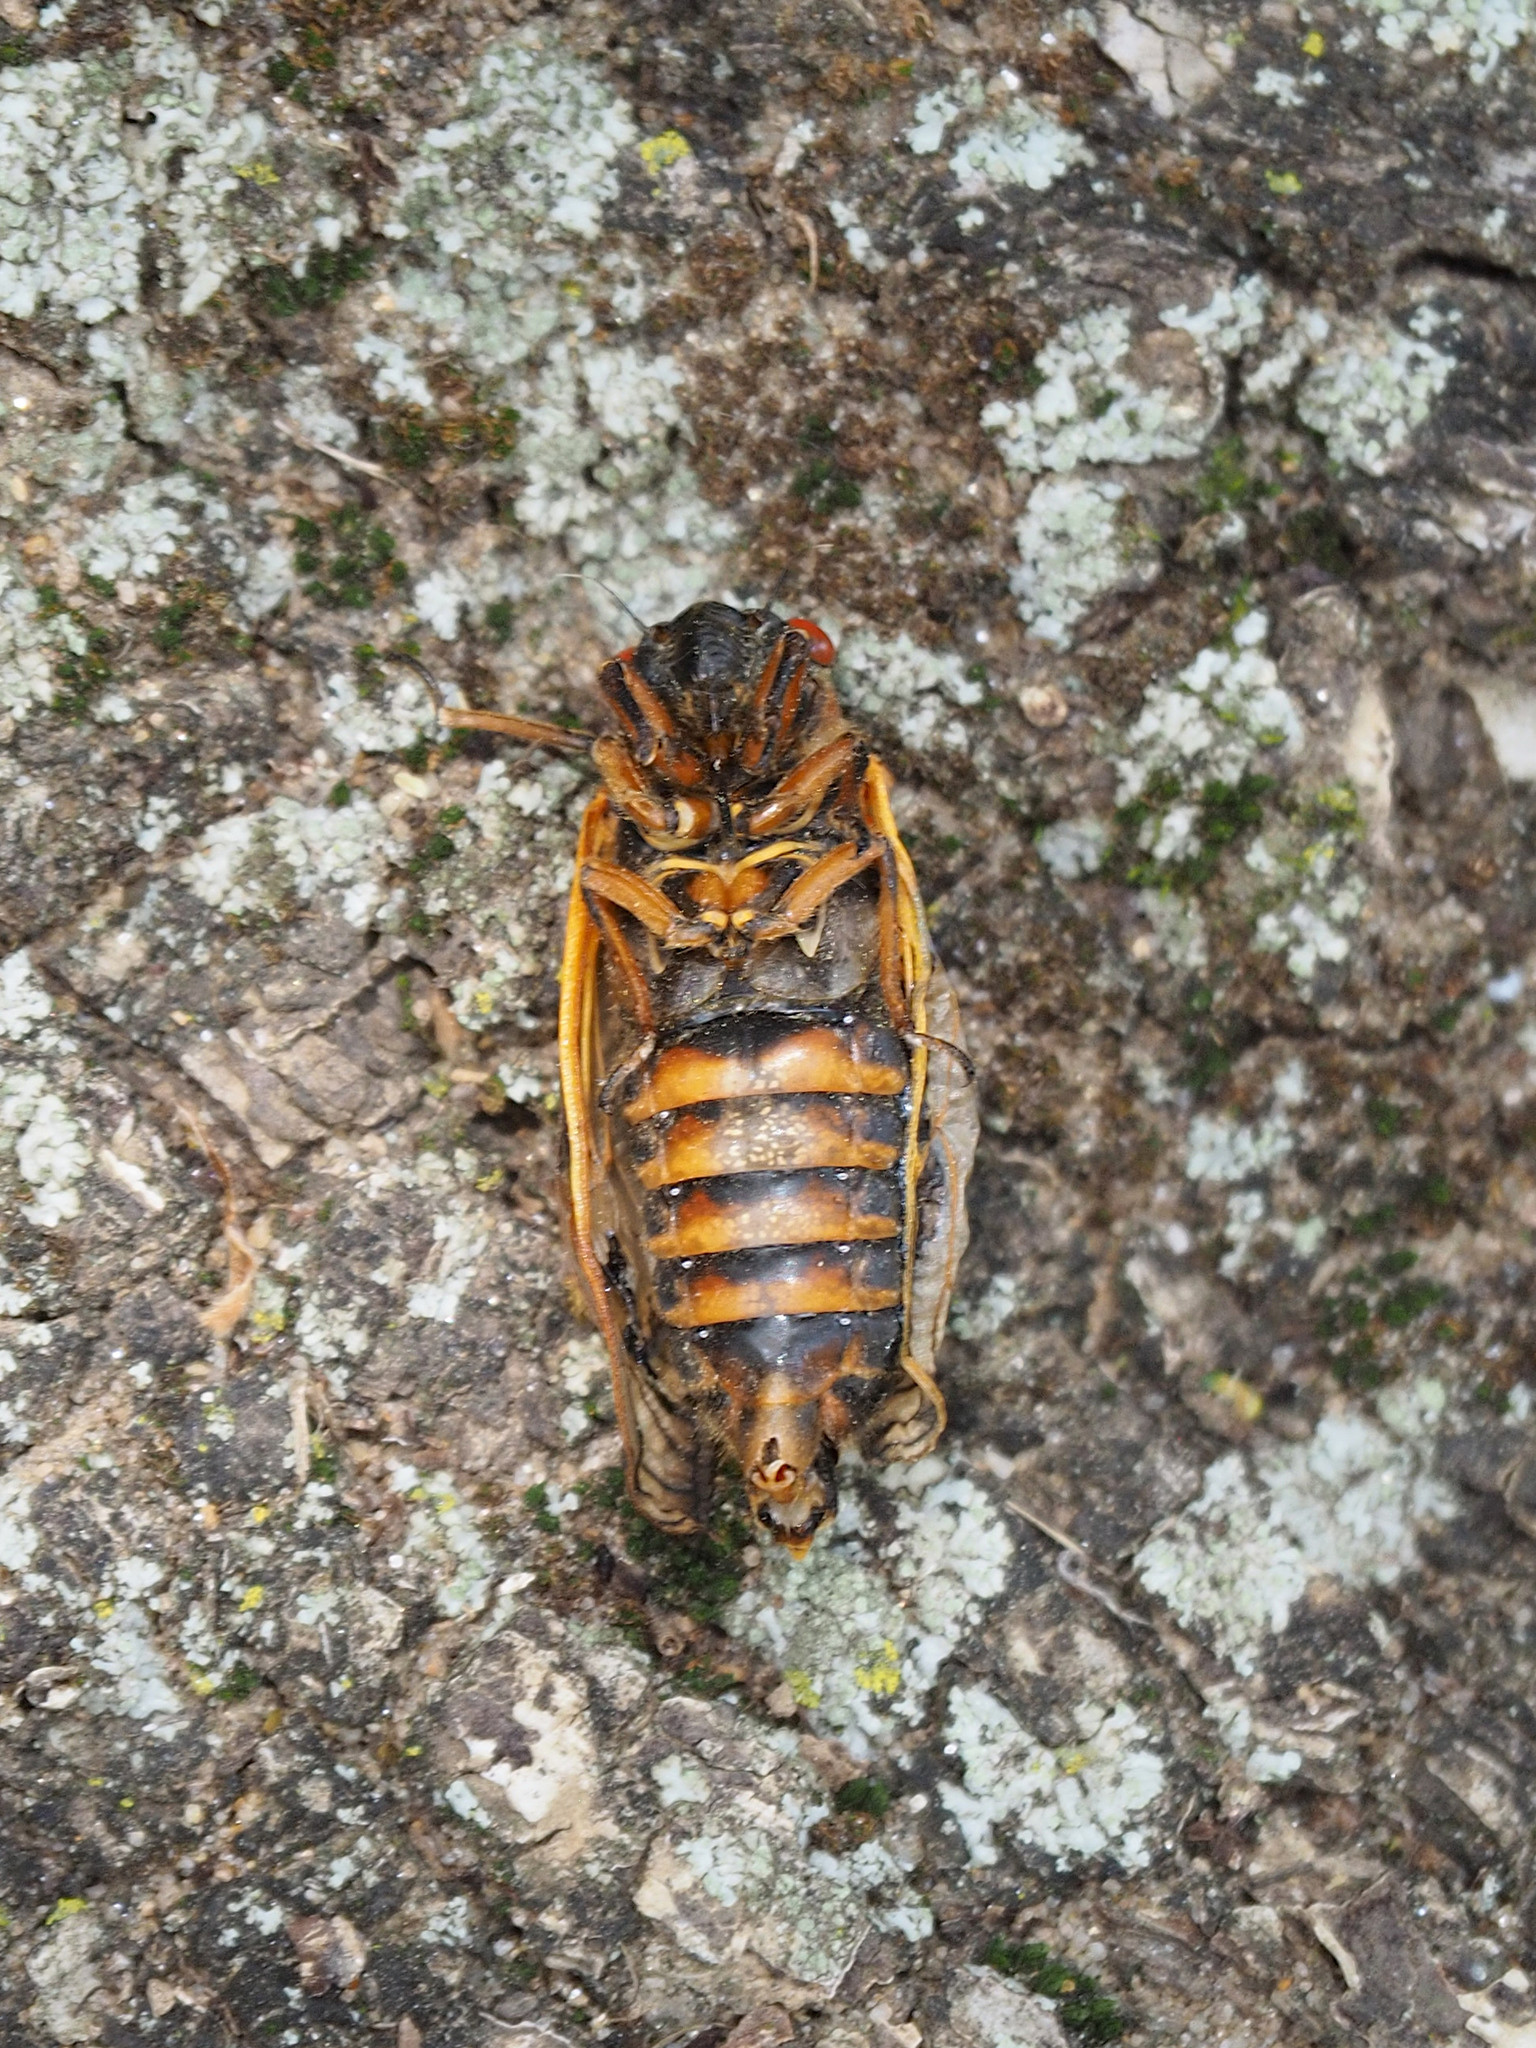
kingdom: Animalia
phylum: Arthropoda
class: Insecta
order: Hemiptera
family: Cicadidae
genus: Magicicada
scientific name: Magicicada septendecim
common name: Periodical cicada
